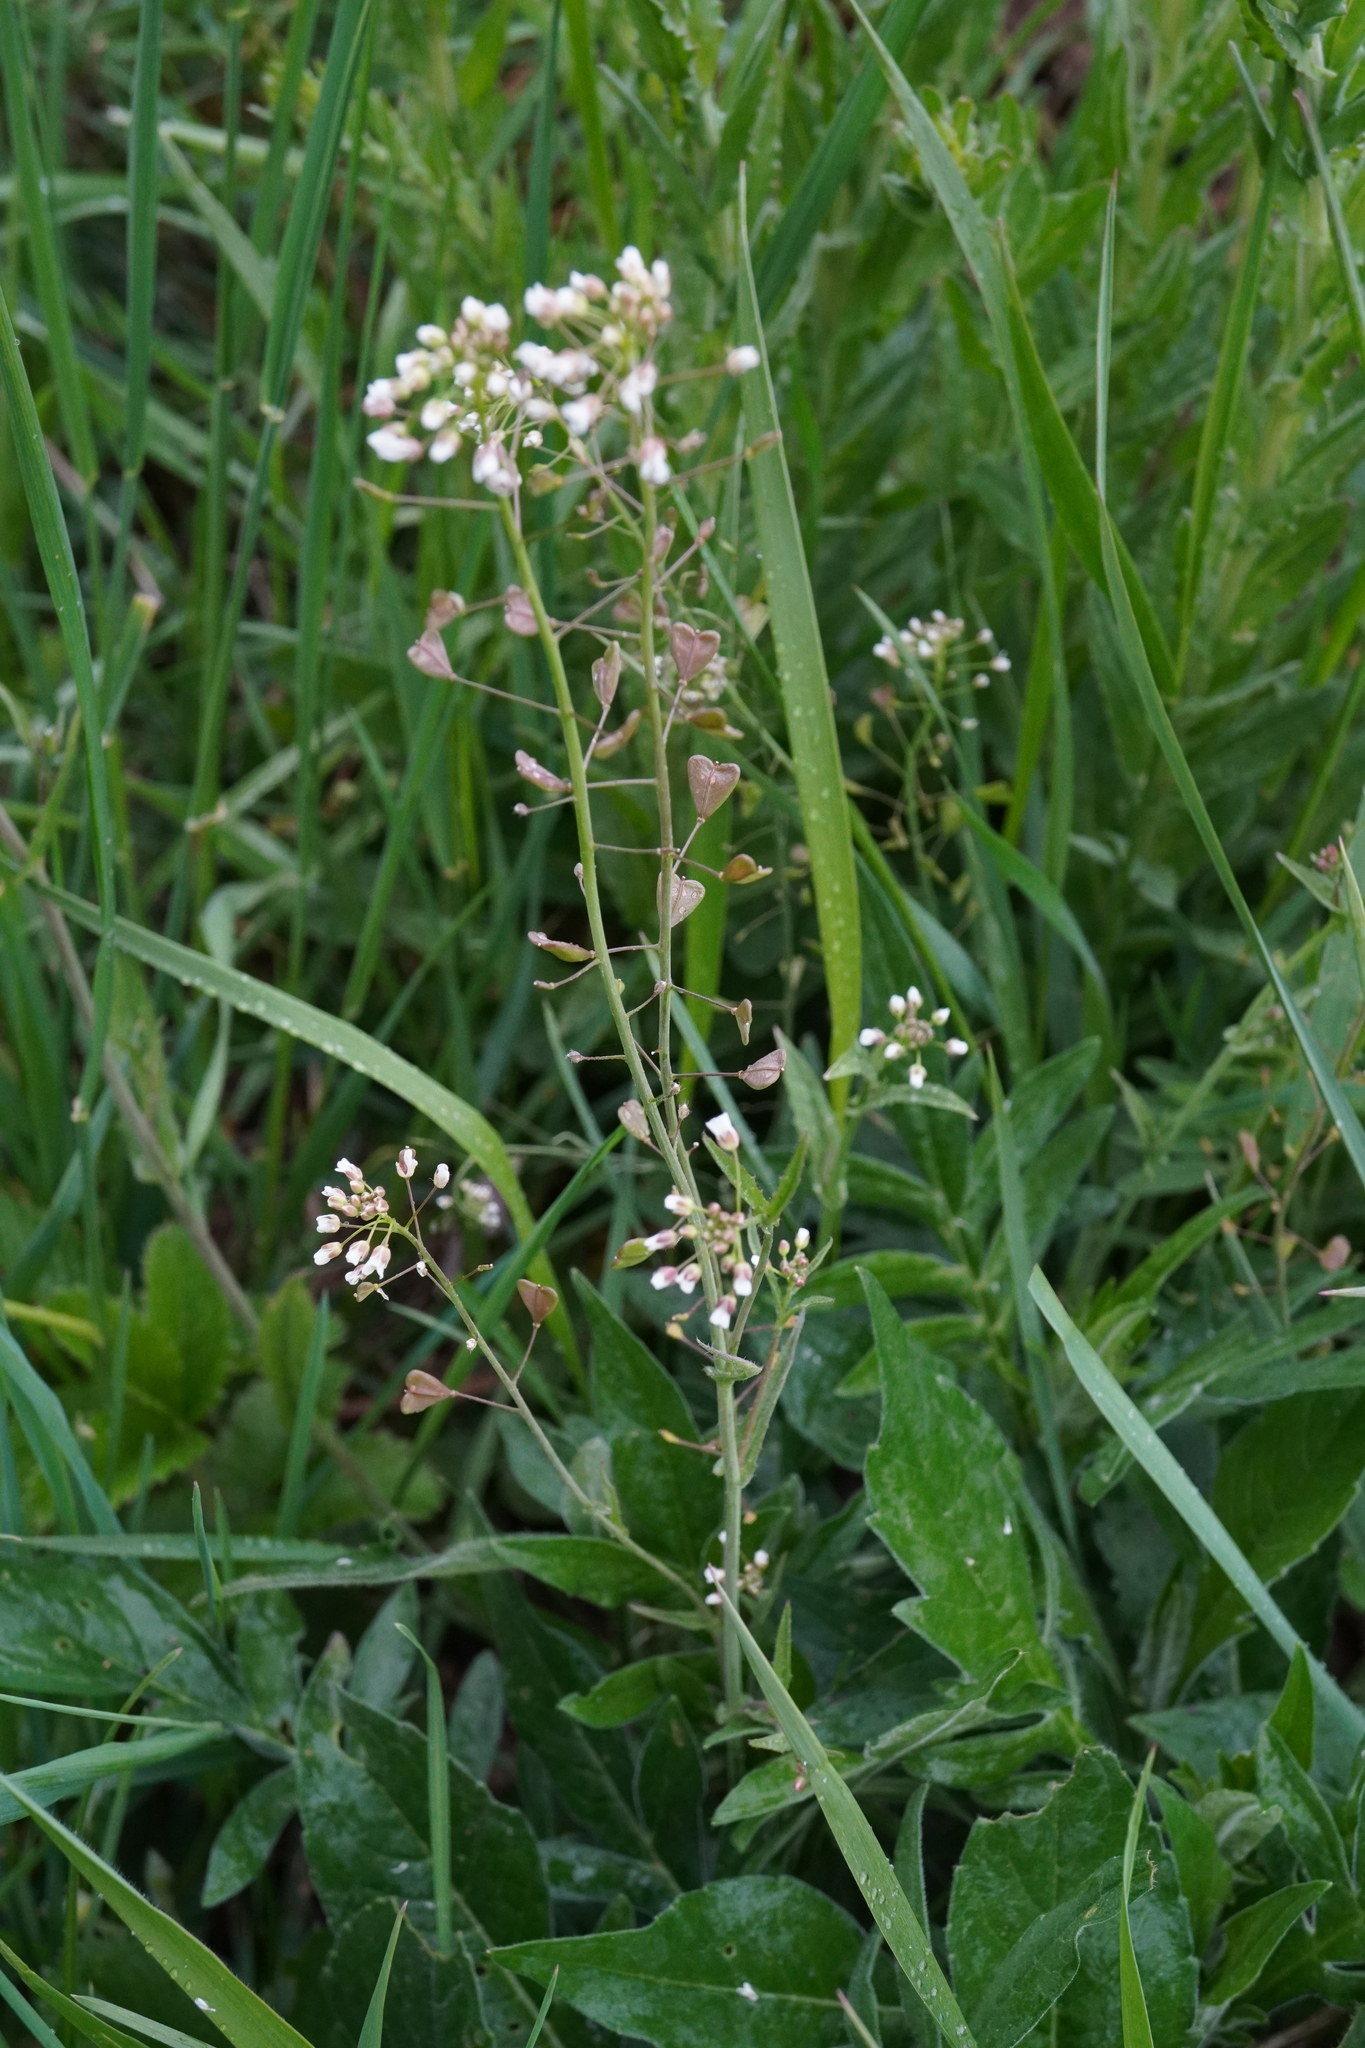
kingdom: Plantae
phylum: Tracheophyta
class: Magnoliopsida
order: Brassicales
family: Brassicaceae
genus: Capsella
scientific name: Capsella bursa-pastoris
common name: Shepherd's purse
